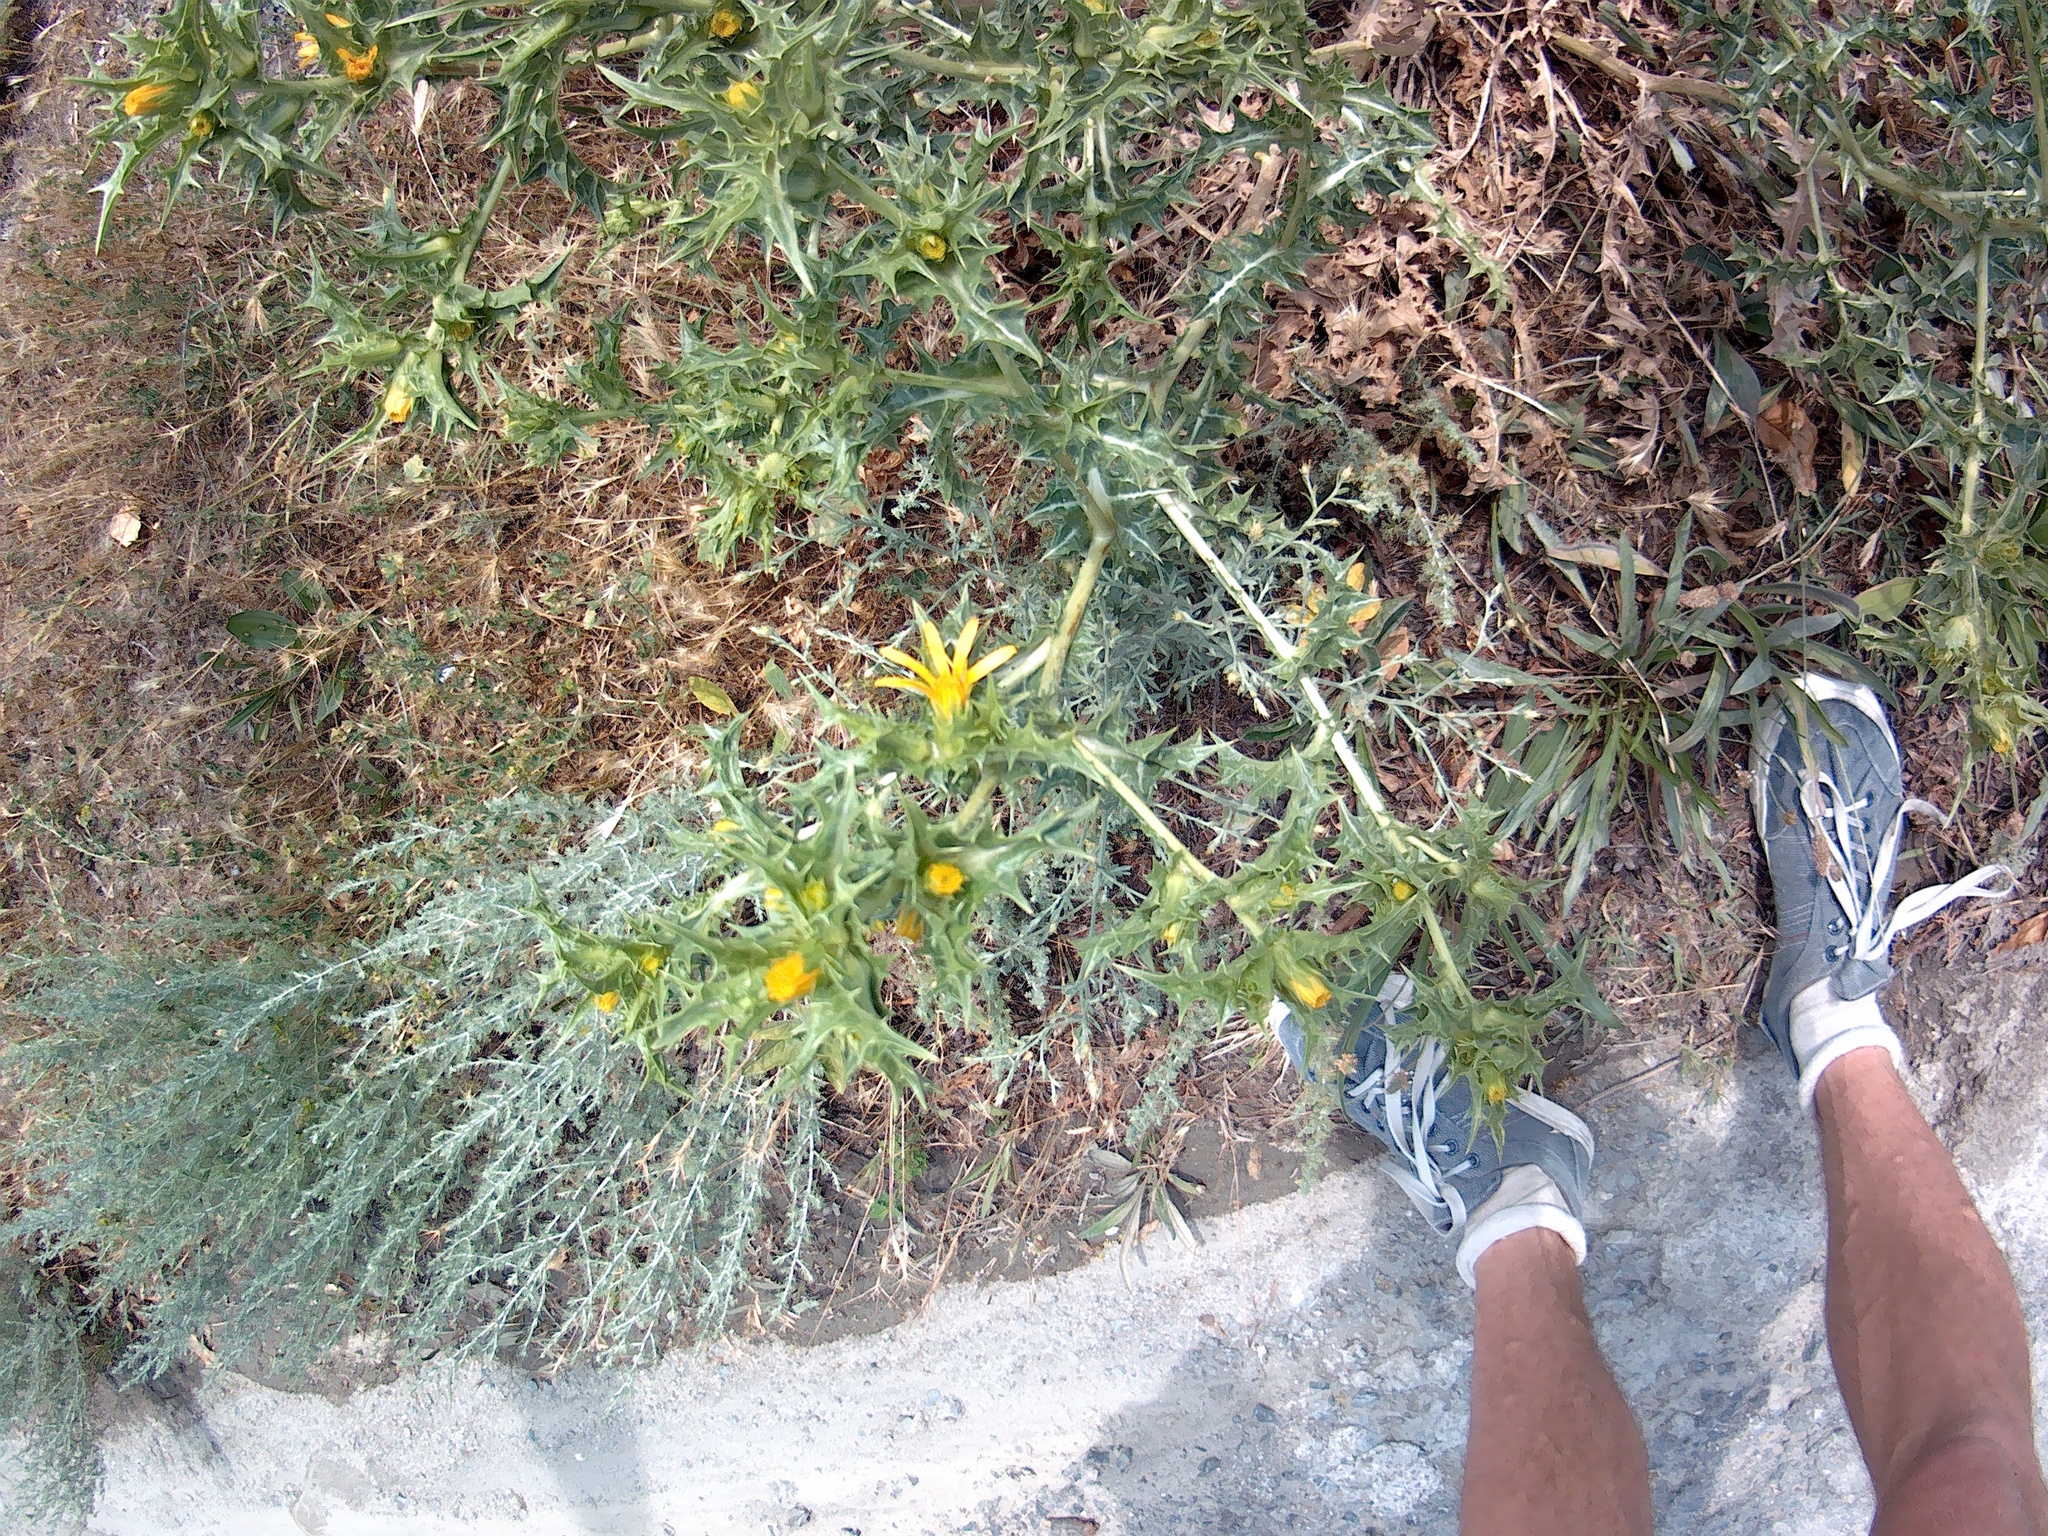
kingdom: Plantae
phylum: Tracheophyta
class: Magnoliopsida
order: Asterales
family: Asteraceae
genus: Scolymus
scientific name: Scolymus hispanicus
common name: Golden thistle
